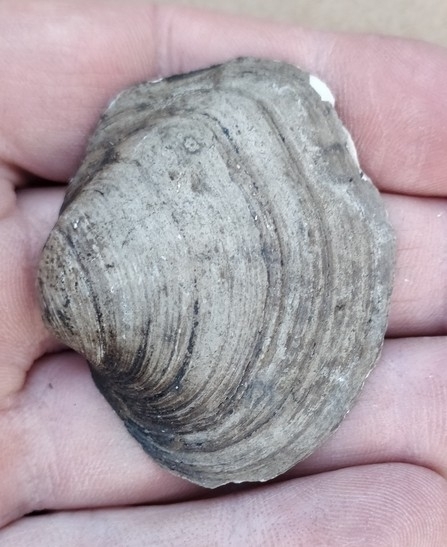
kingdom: Animalia
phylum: Mollusca
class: Bivalvia
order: Unionida
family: Unionidae
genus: Cyclonaias
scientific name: Cyclonaias pustulosa
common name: Pimpleback
